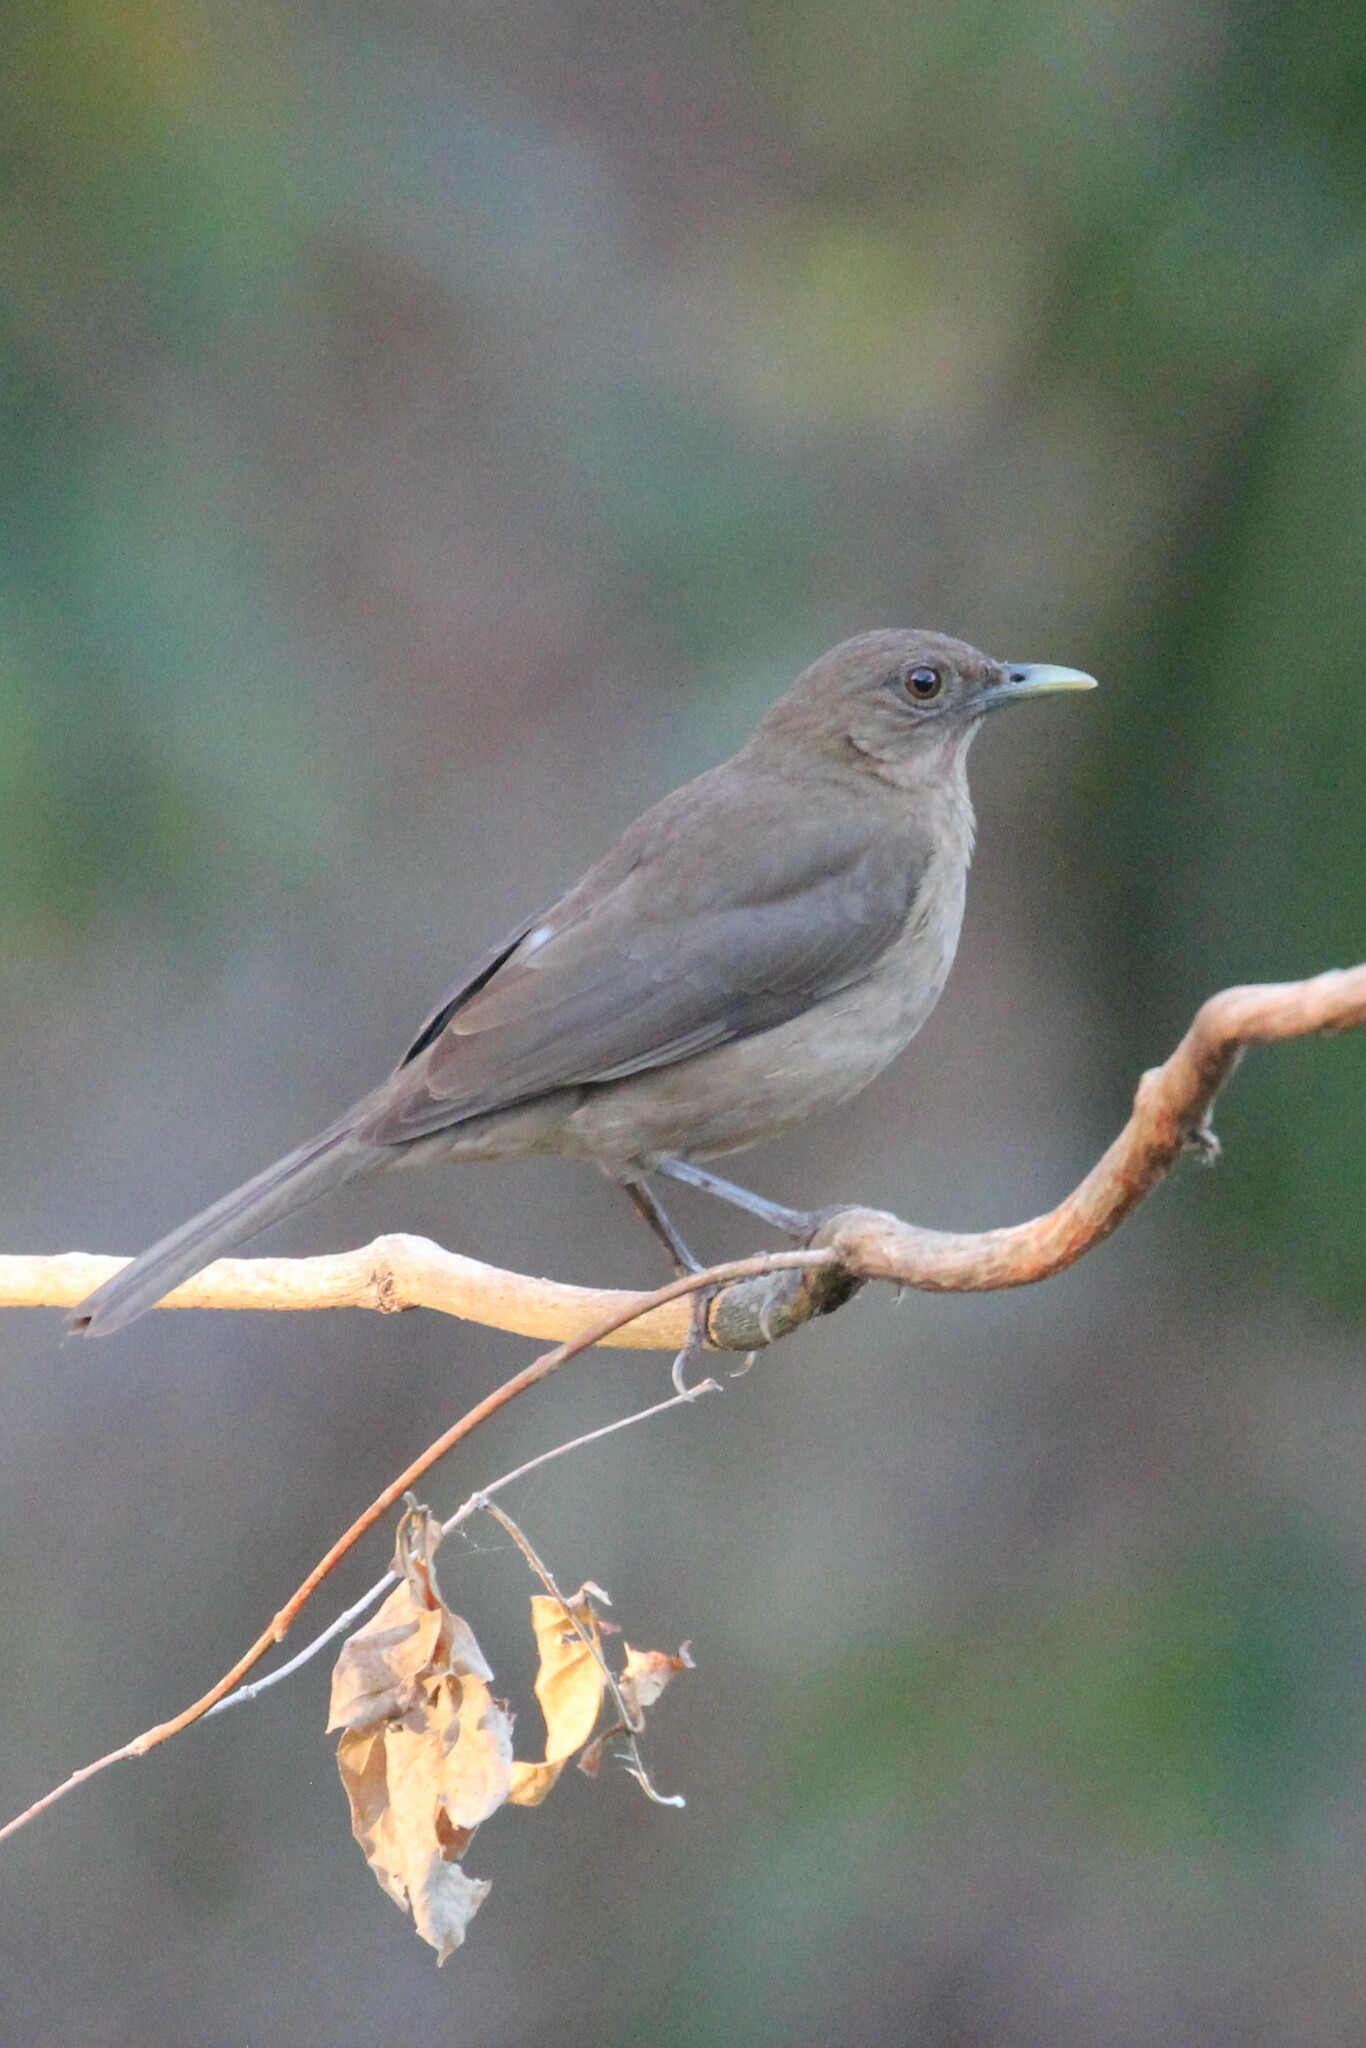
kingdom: Animalia
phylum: Chordata
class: Aves
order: Passeriformes
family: Turdidae
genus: Turdus
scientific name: Turdus grayi
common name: Clay-colored thrush
